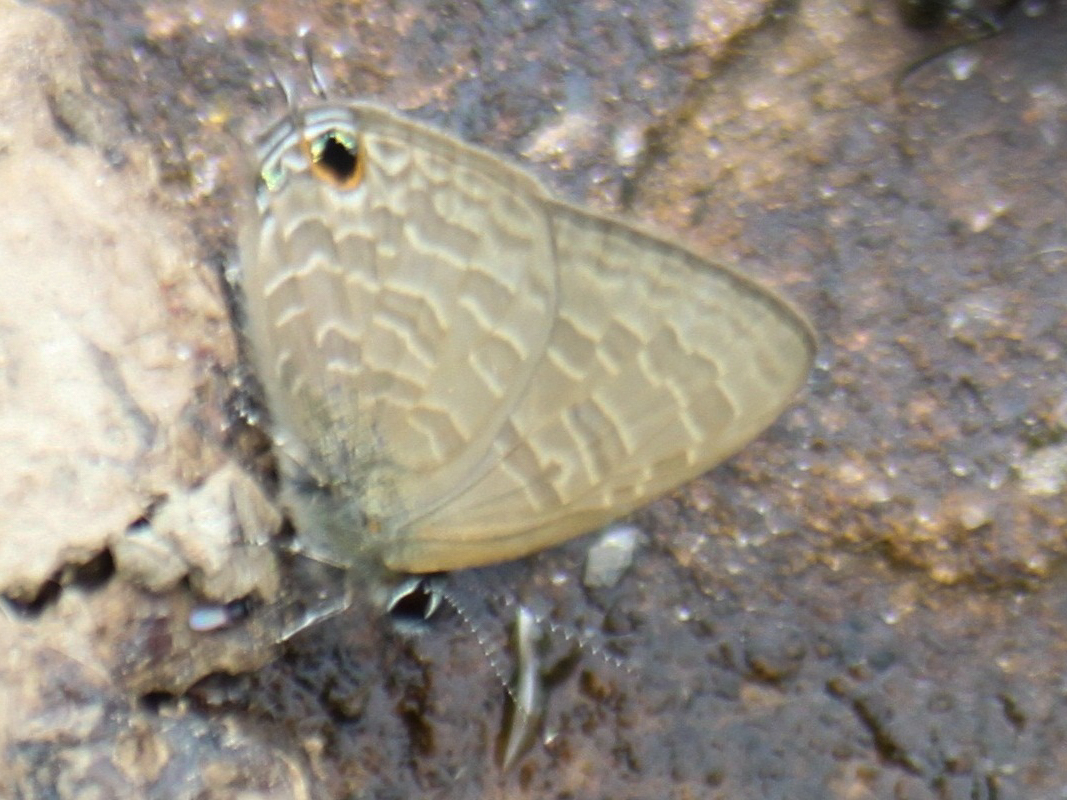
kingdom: Animalia
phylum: Arthropoda
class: Insecta
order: Lepidoptera
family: Lycaenidae
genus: Ionolyce
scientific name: Ionolyce helicon
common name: Pointed line blue
